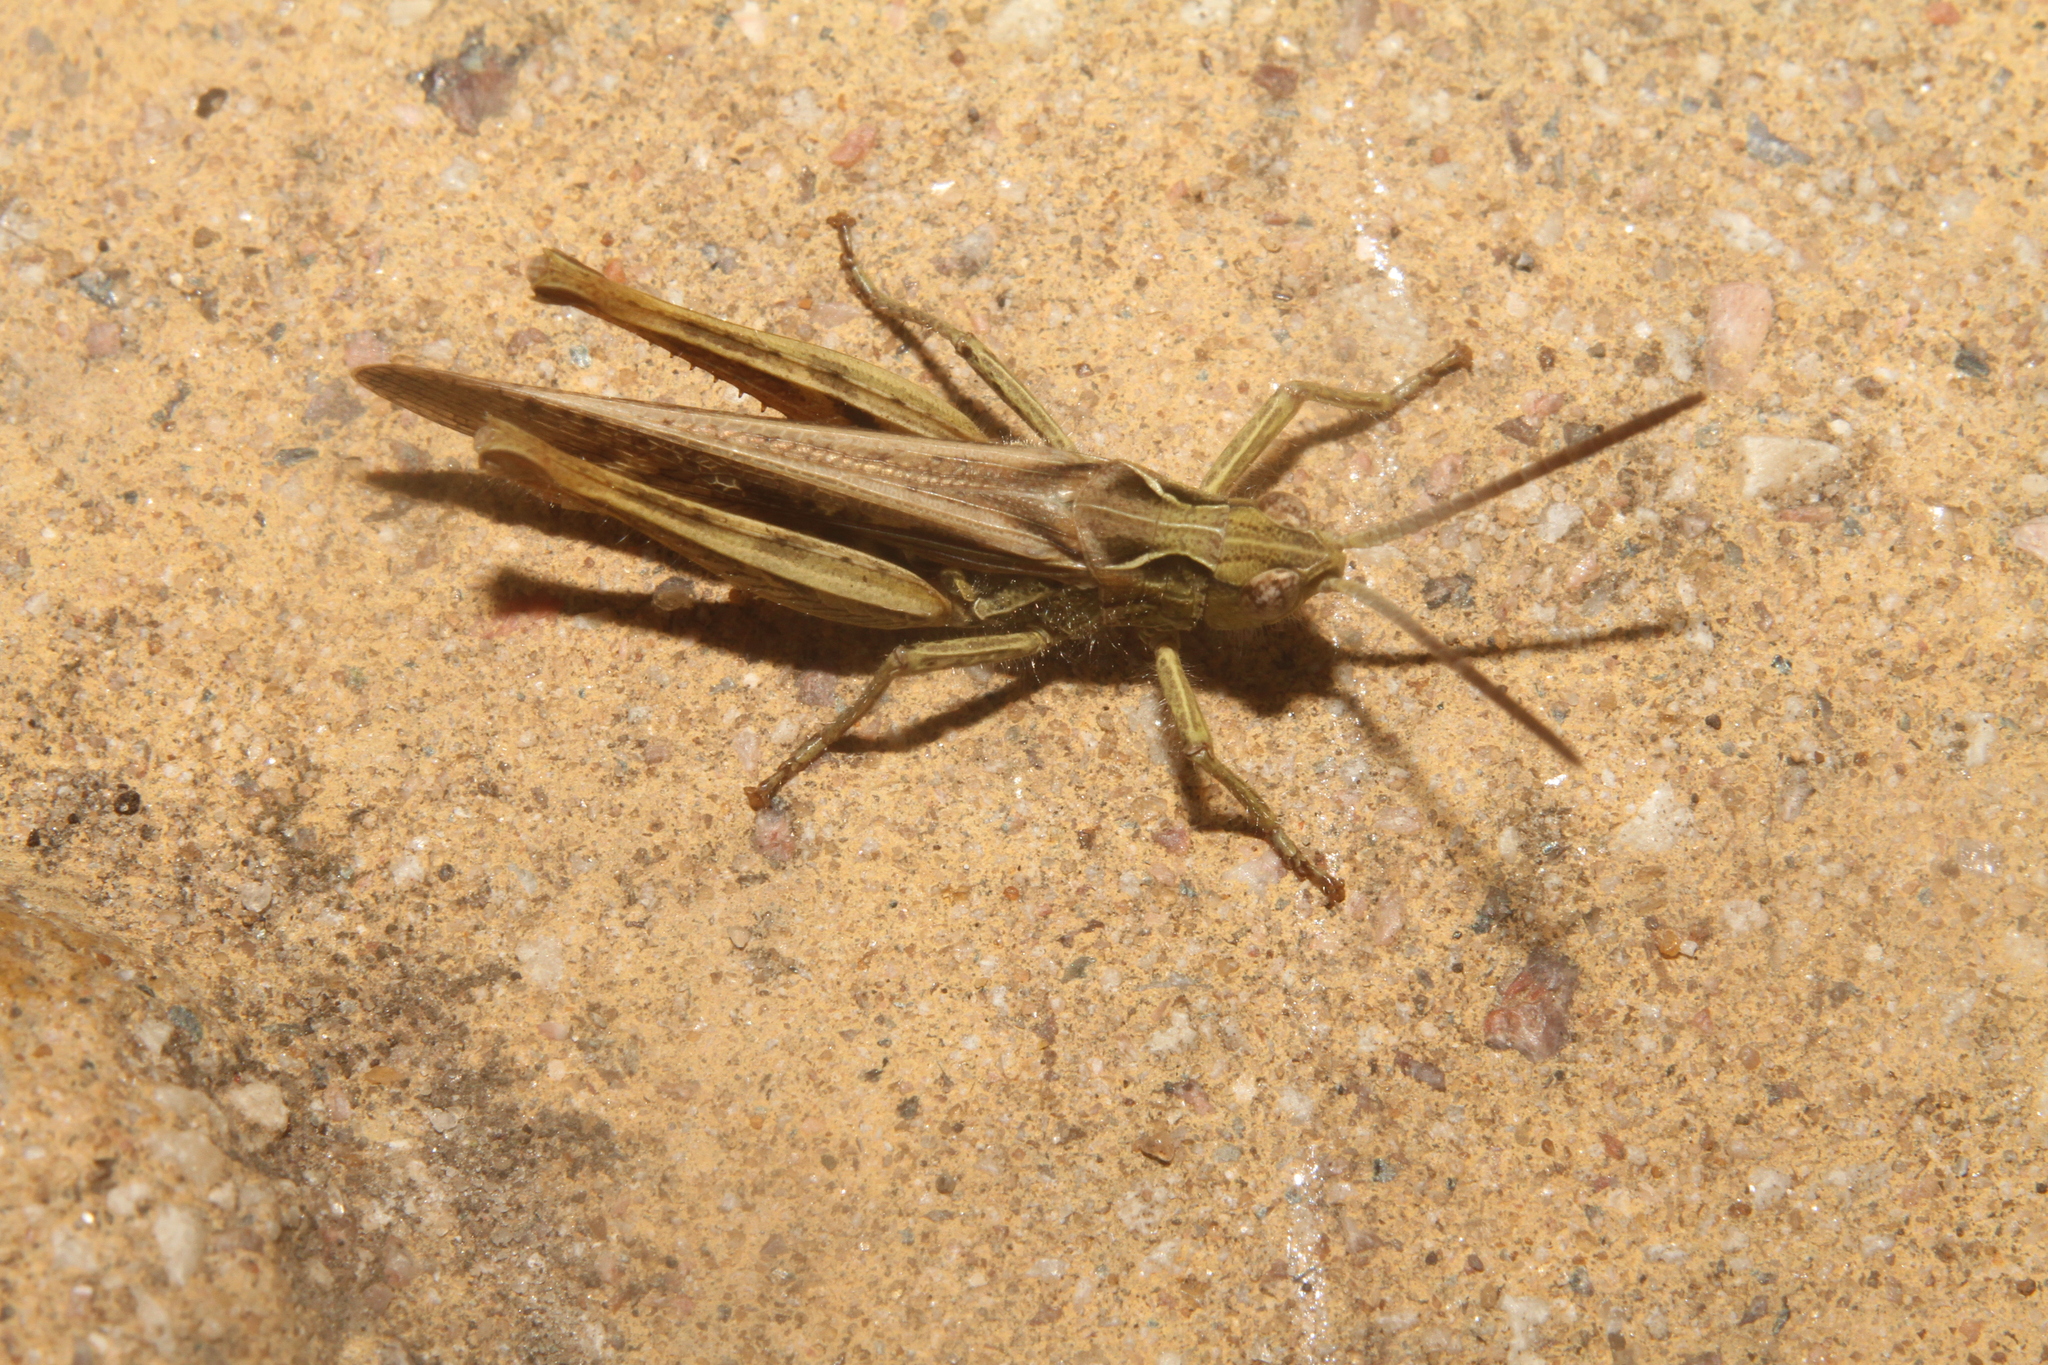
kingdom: Animalia
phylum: Arthropoda
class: Insecta
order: Orthoptera
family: Acrididae
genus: Chorthippus
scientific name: Chorthippus brunneus
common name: Field grasshopper
